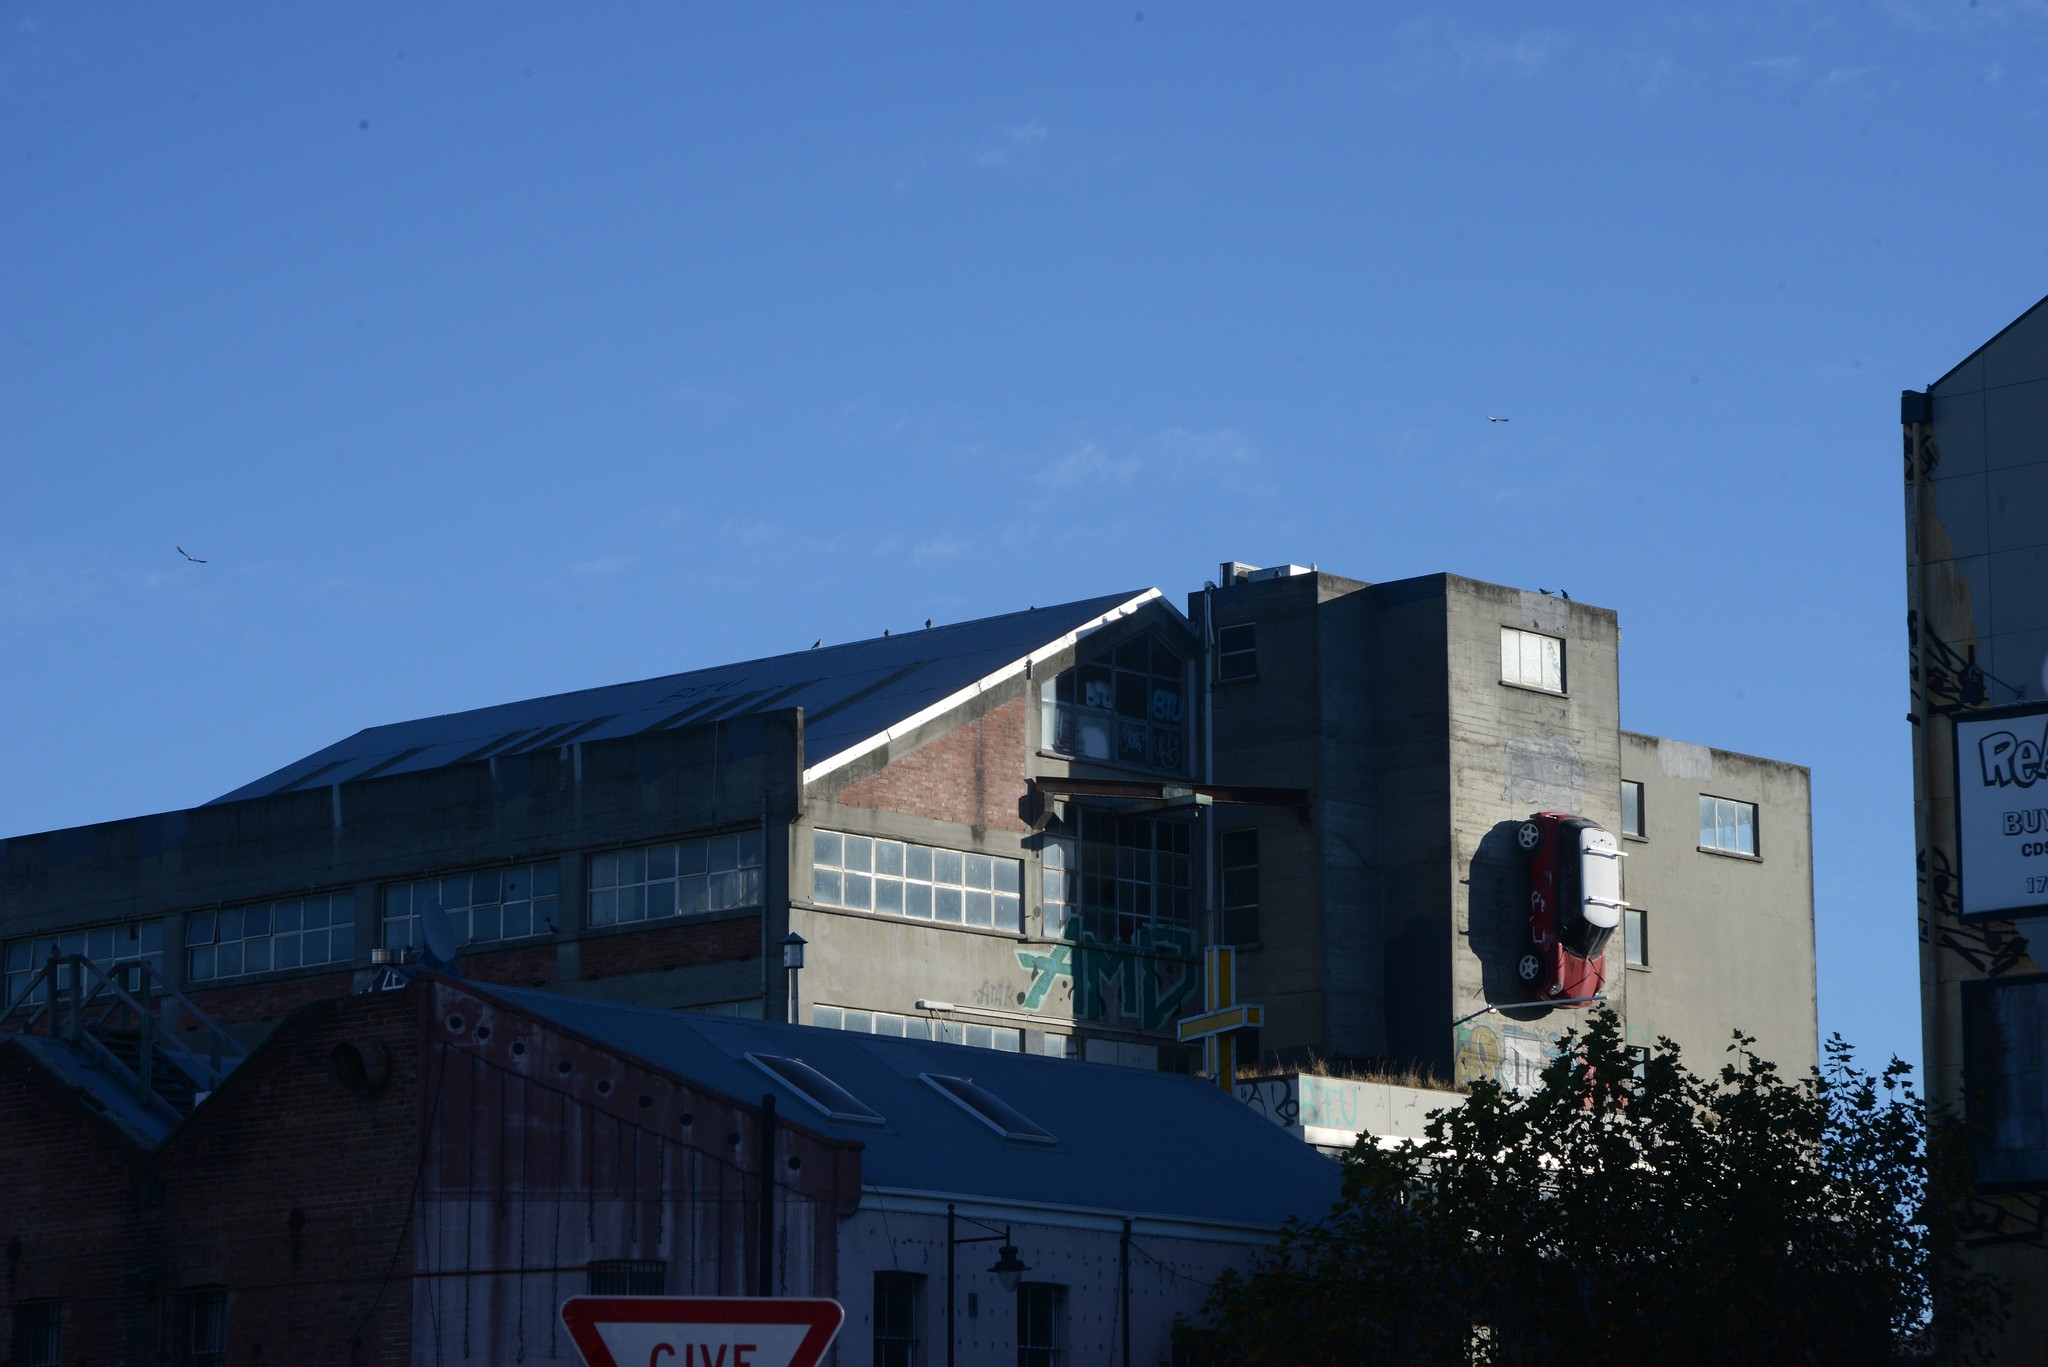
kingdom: Animalia
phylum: Chordata
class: Aves
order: Columbiformes
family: Columbidae
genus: Columba
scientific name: Columba livia
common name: Rock pigeon
